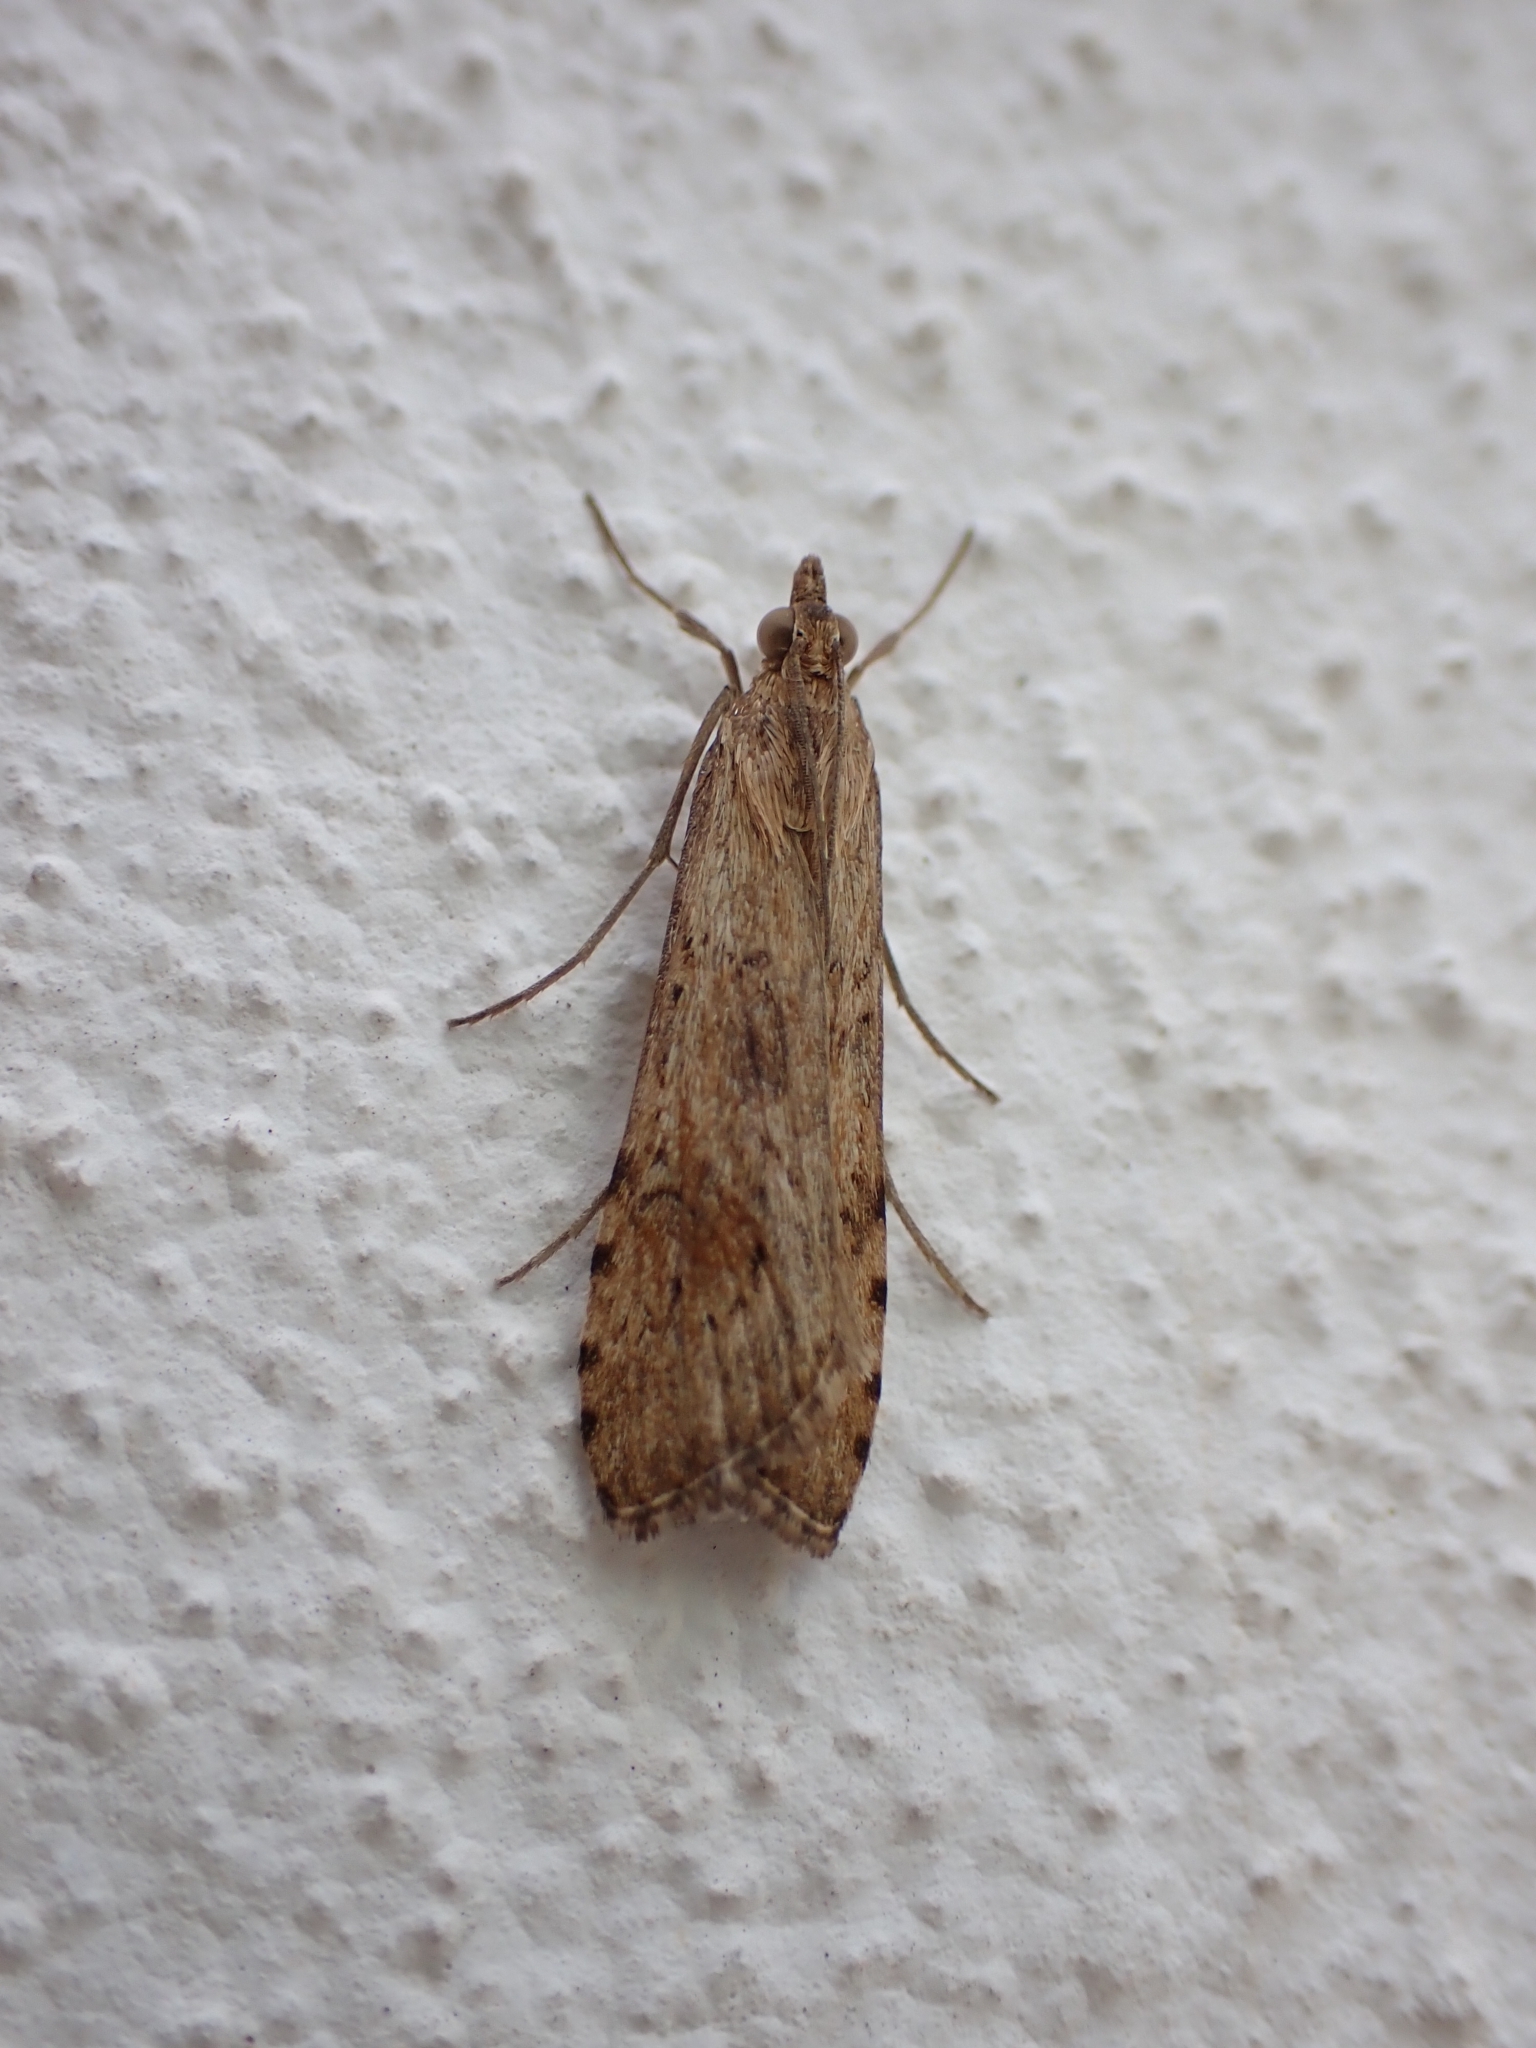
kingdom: Animalia
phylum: Arthropoda
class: Insecta
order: Lepidoptera
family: Crambidae
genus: Nomophila
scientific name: Nomophila noctuella
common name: Rush veneer
